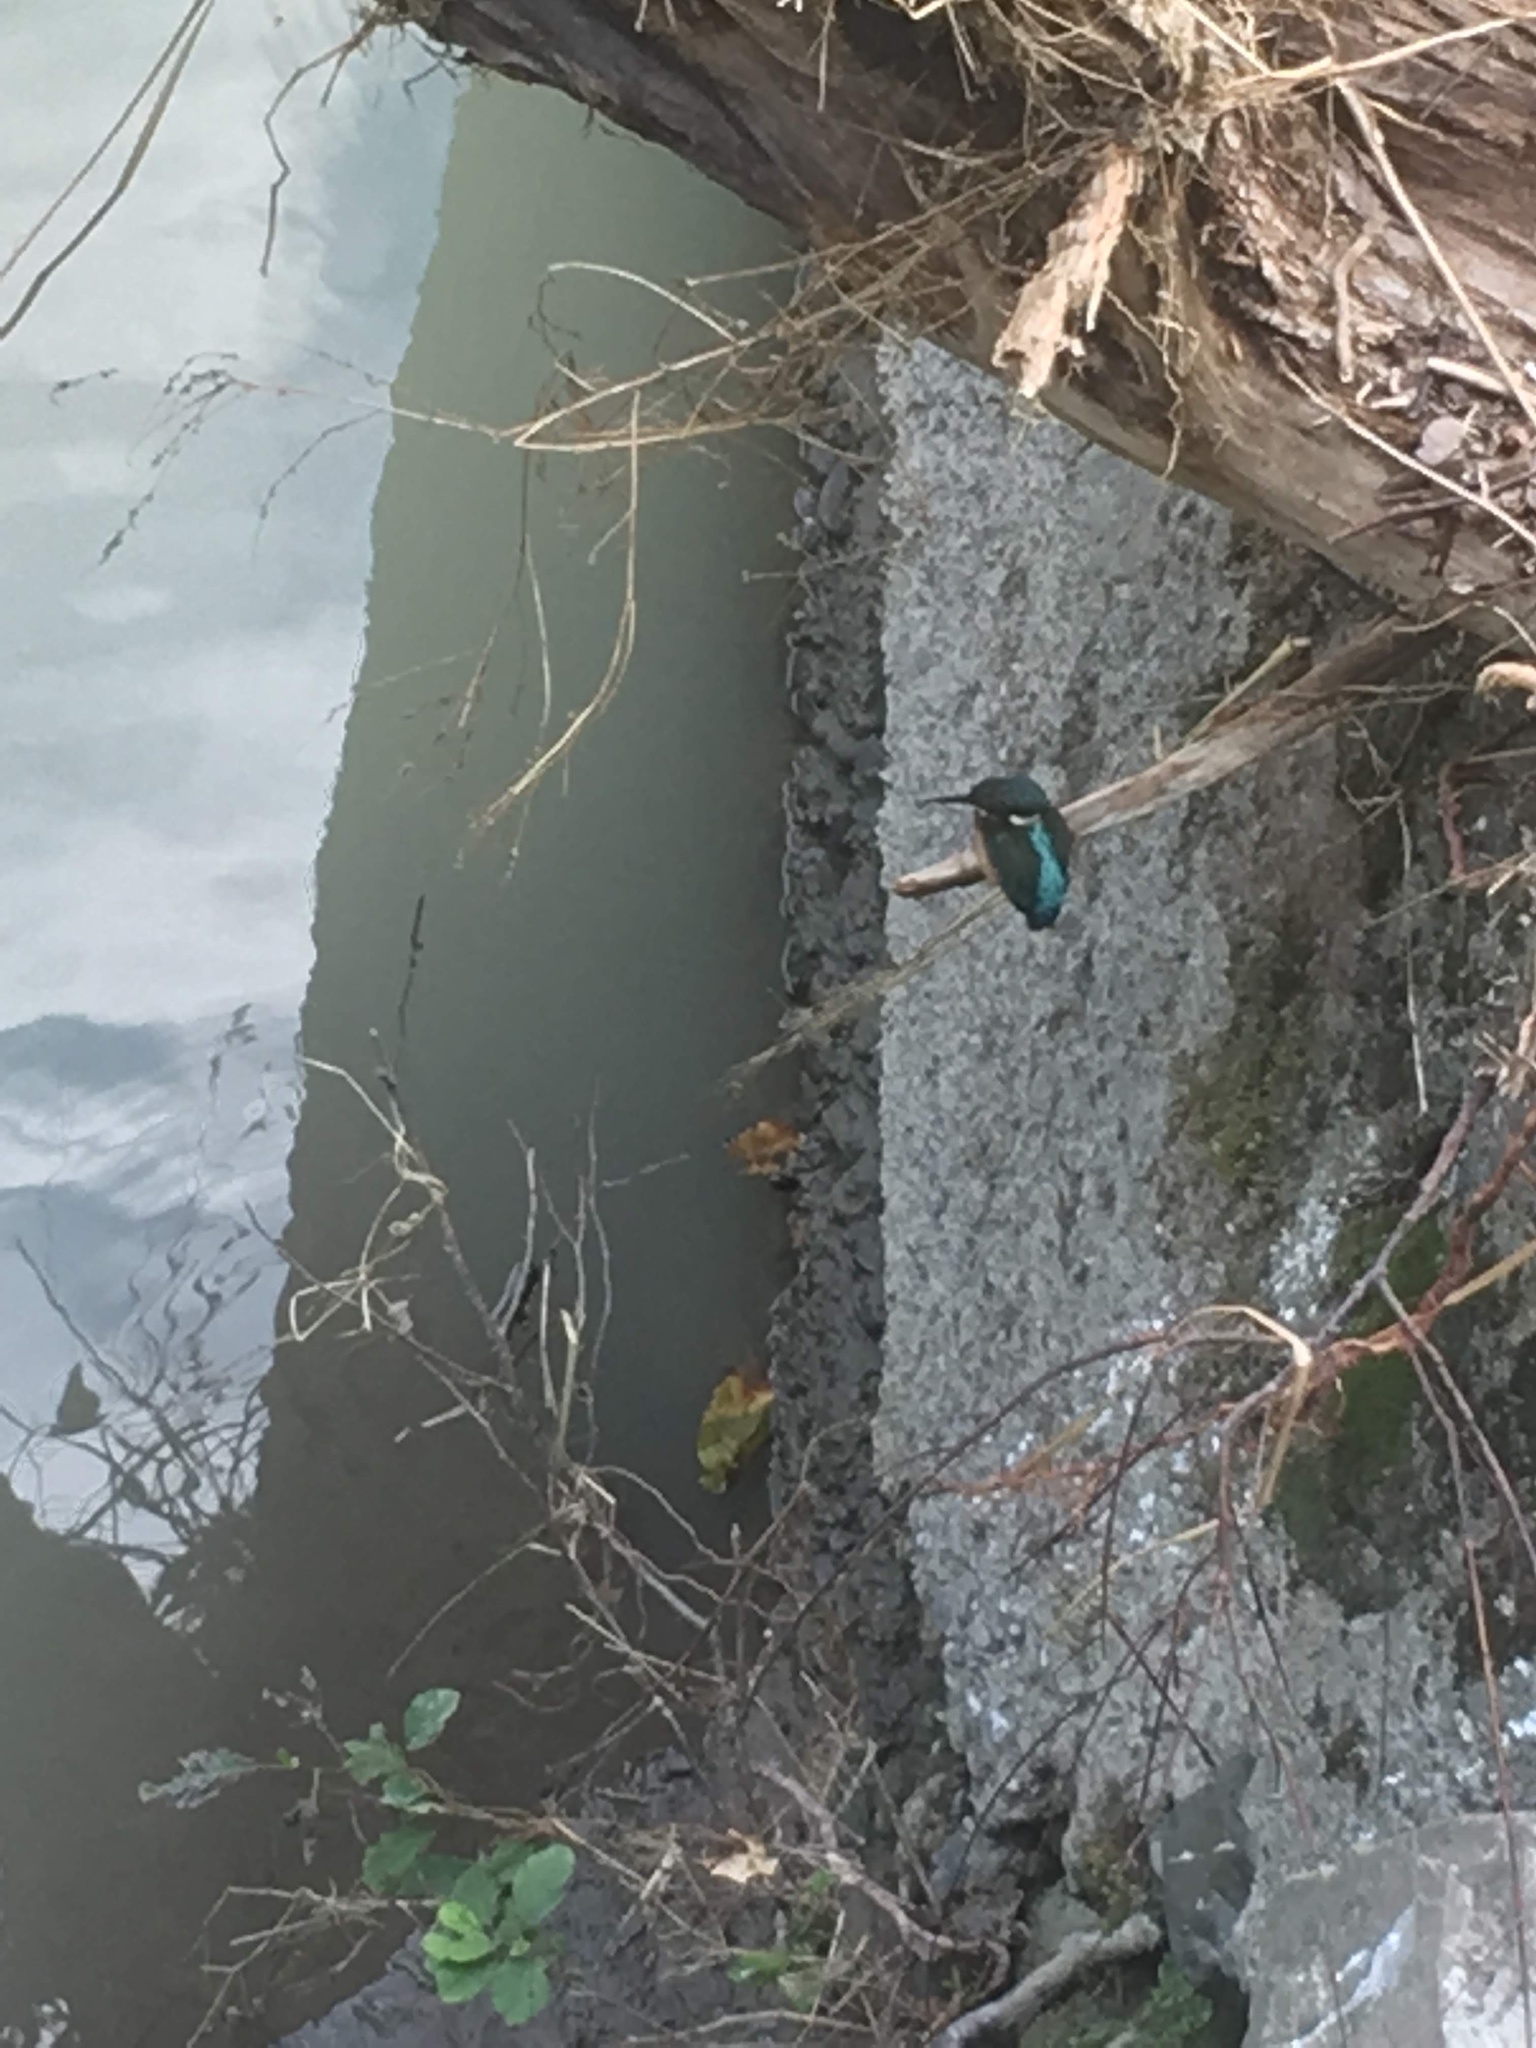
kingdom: Animalia
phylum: Chordata
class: Aves
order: Coraciiformes
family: Alcedinidae
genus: Alcedo
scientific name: Alcedo atthis
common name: Common kingfisher
